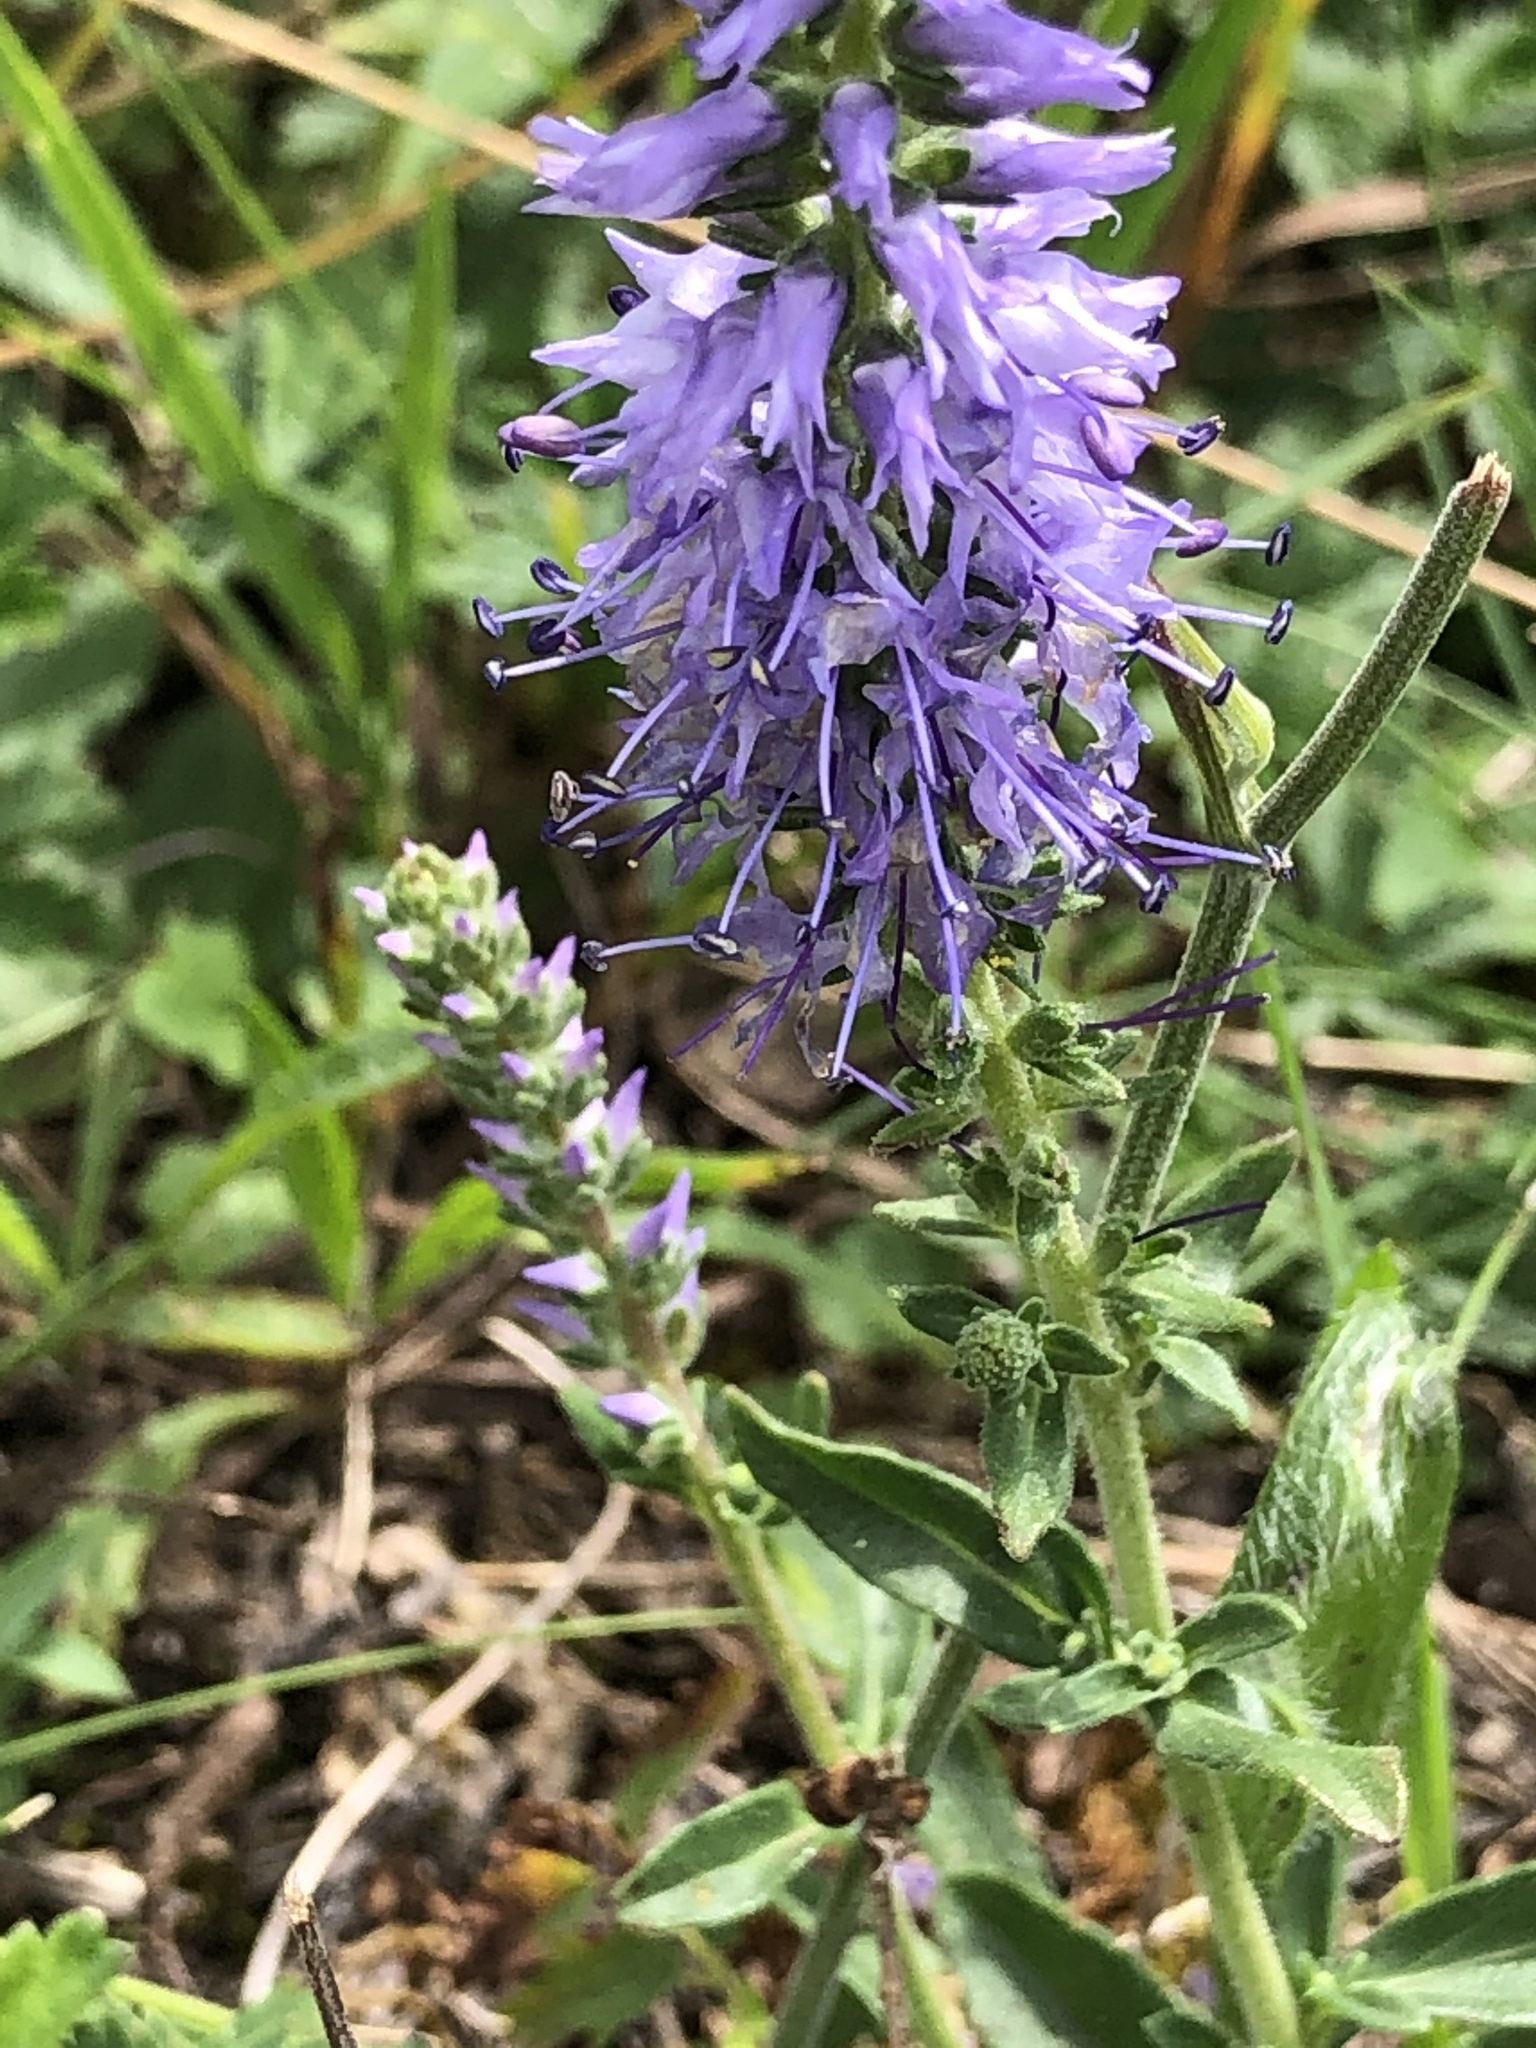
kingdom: Plantae
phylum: Tracheophyta
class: Magnoliopsida
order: Lamiales
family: Plantaginaceae
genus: Veronica
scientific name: Veronica spicata
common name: Spiked speedwell
